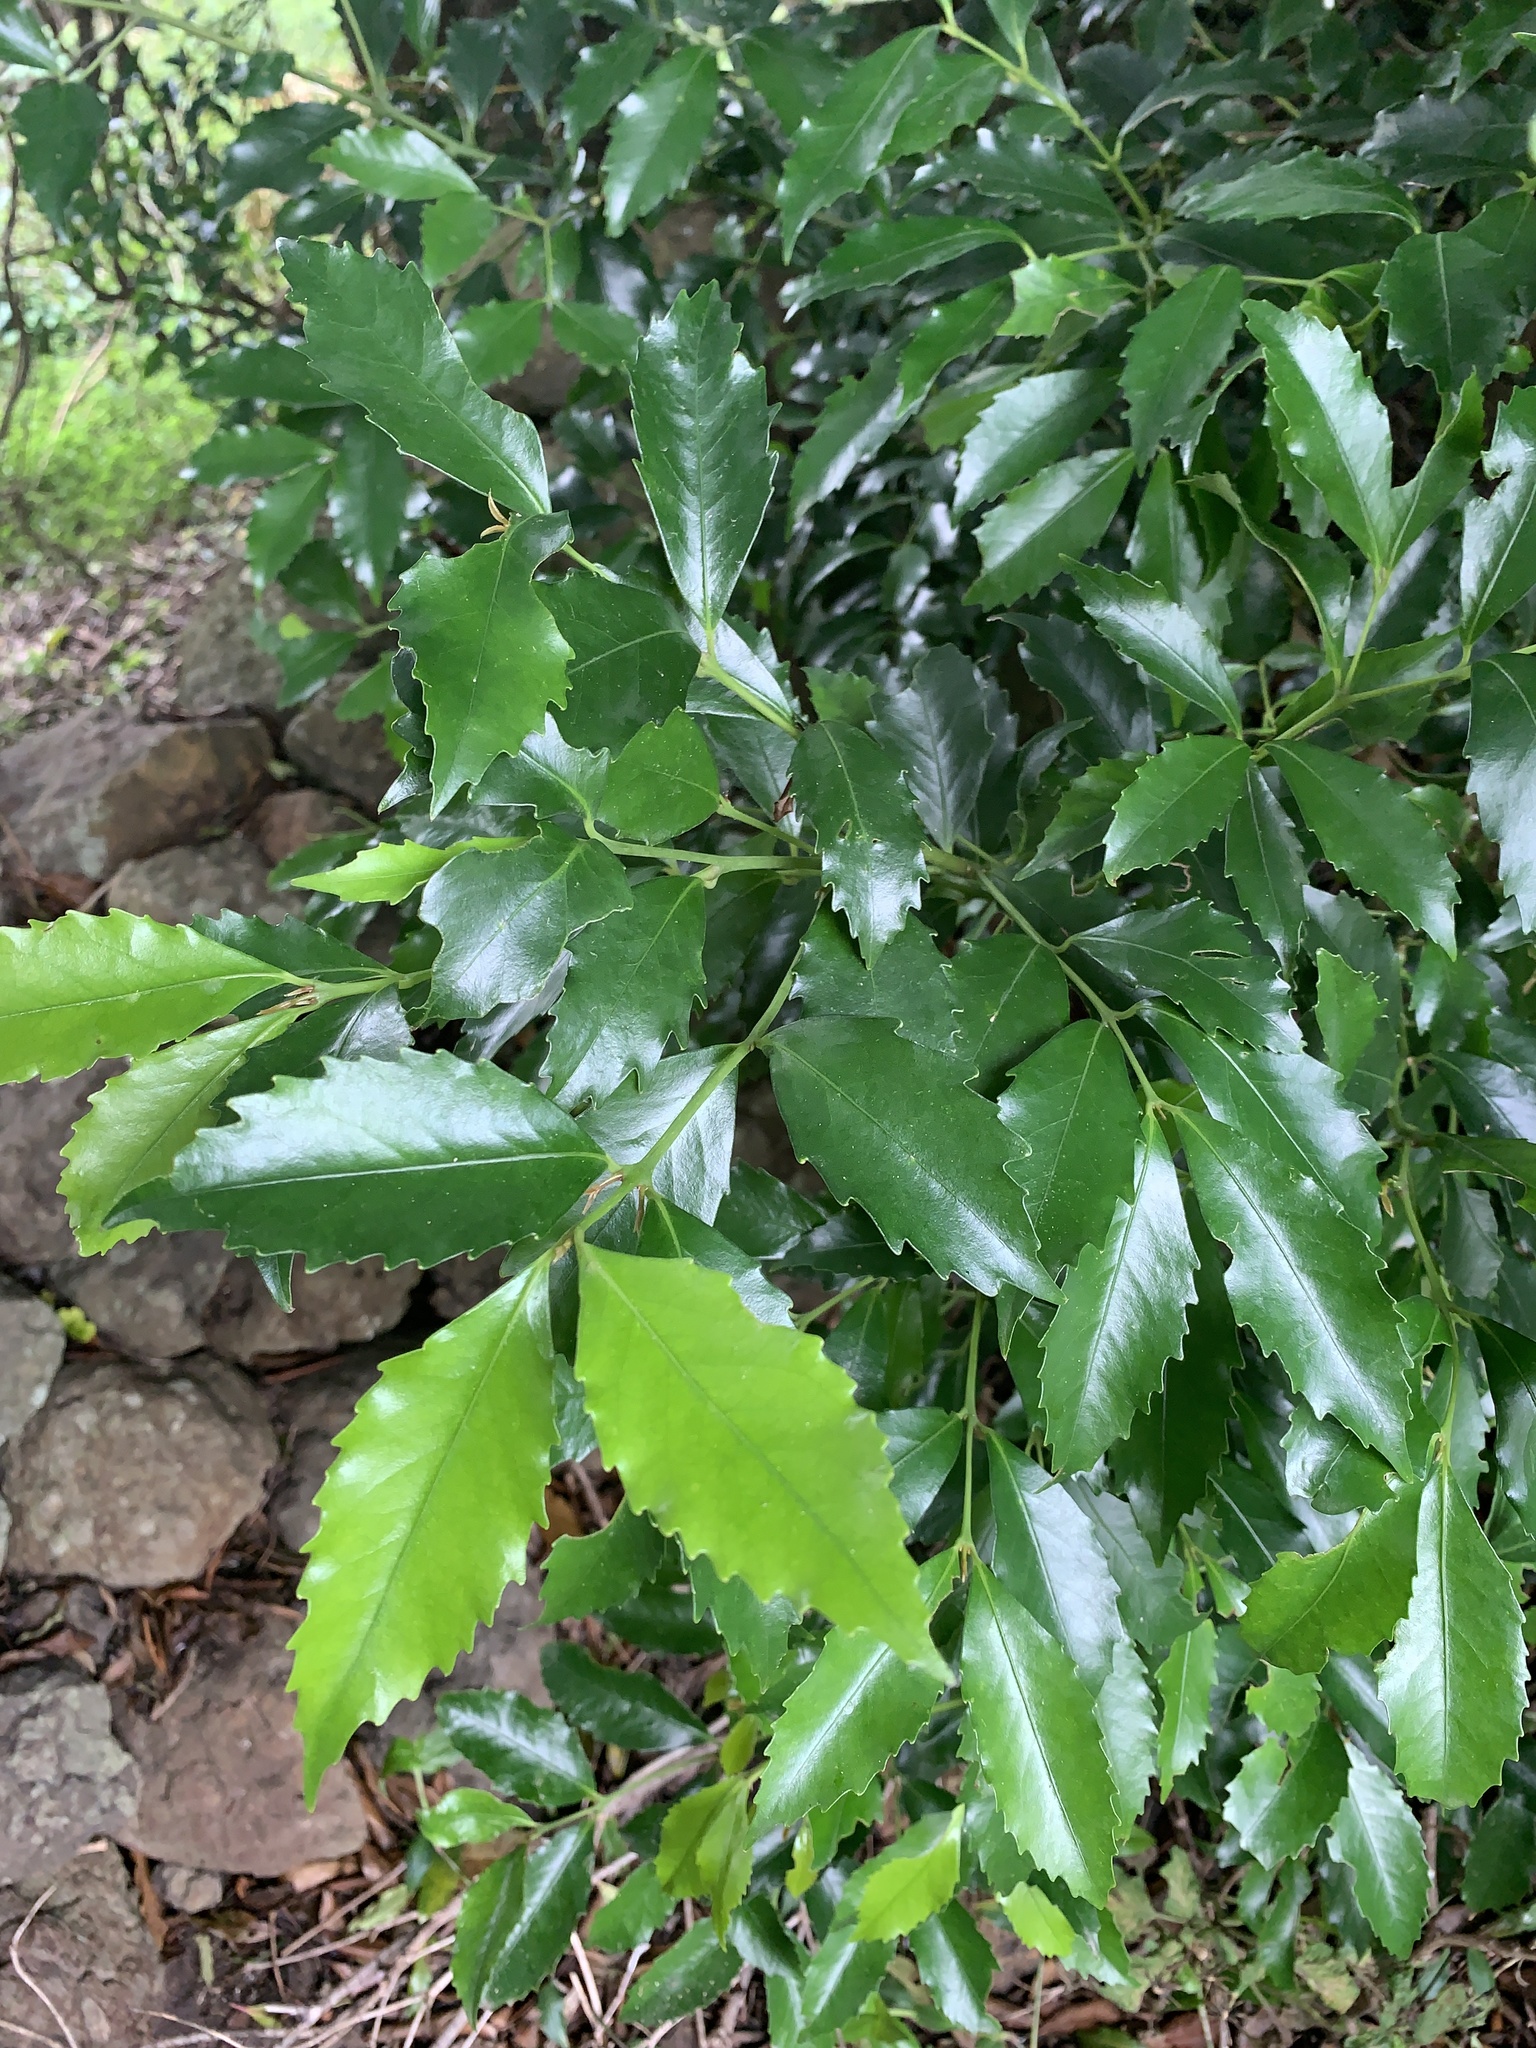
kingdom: Plantae
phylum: Tracheophyta
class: Magnoliopsida
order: Laurales
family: Atherospermataceae
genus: Daphnandra
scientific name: Daphnandra johnsonii
